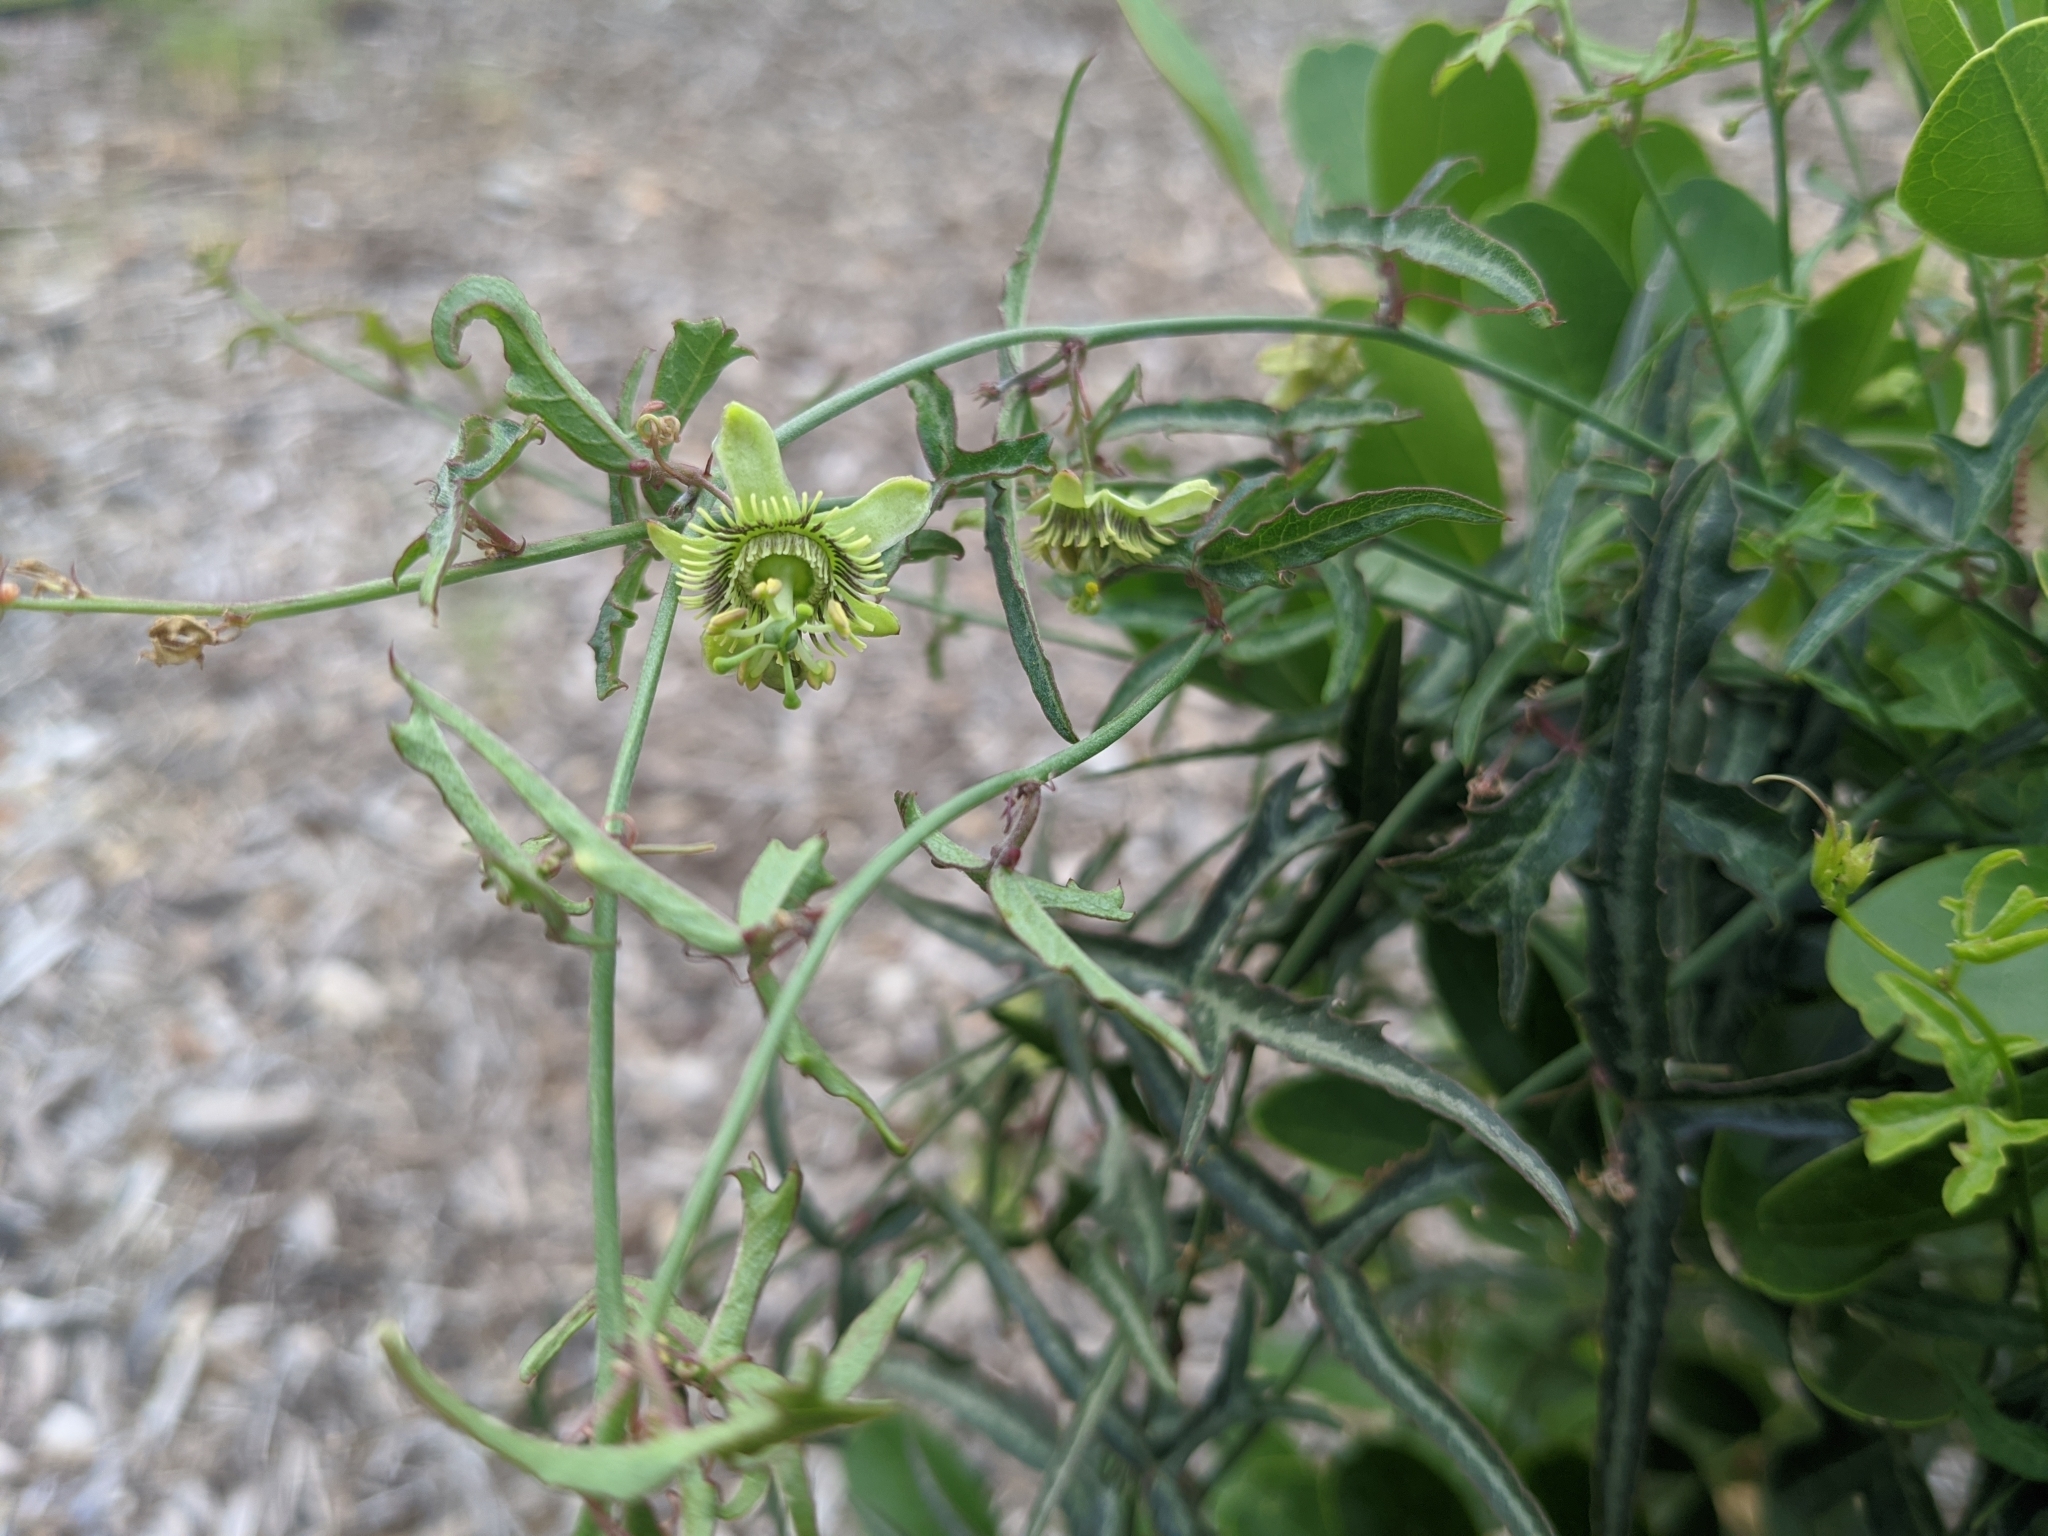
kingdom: Plantae
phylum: Tracheophyta
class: Magnoliopsida
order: Malpighiales
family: Passifloraceae
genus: Passiflora
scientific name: Passiflora tenuiloba
